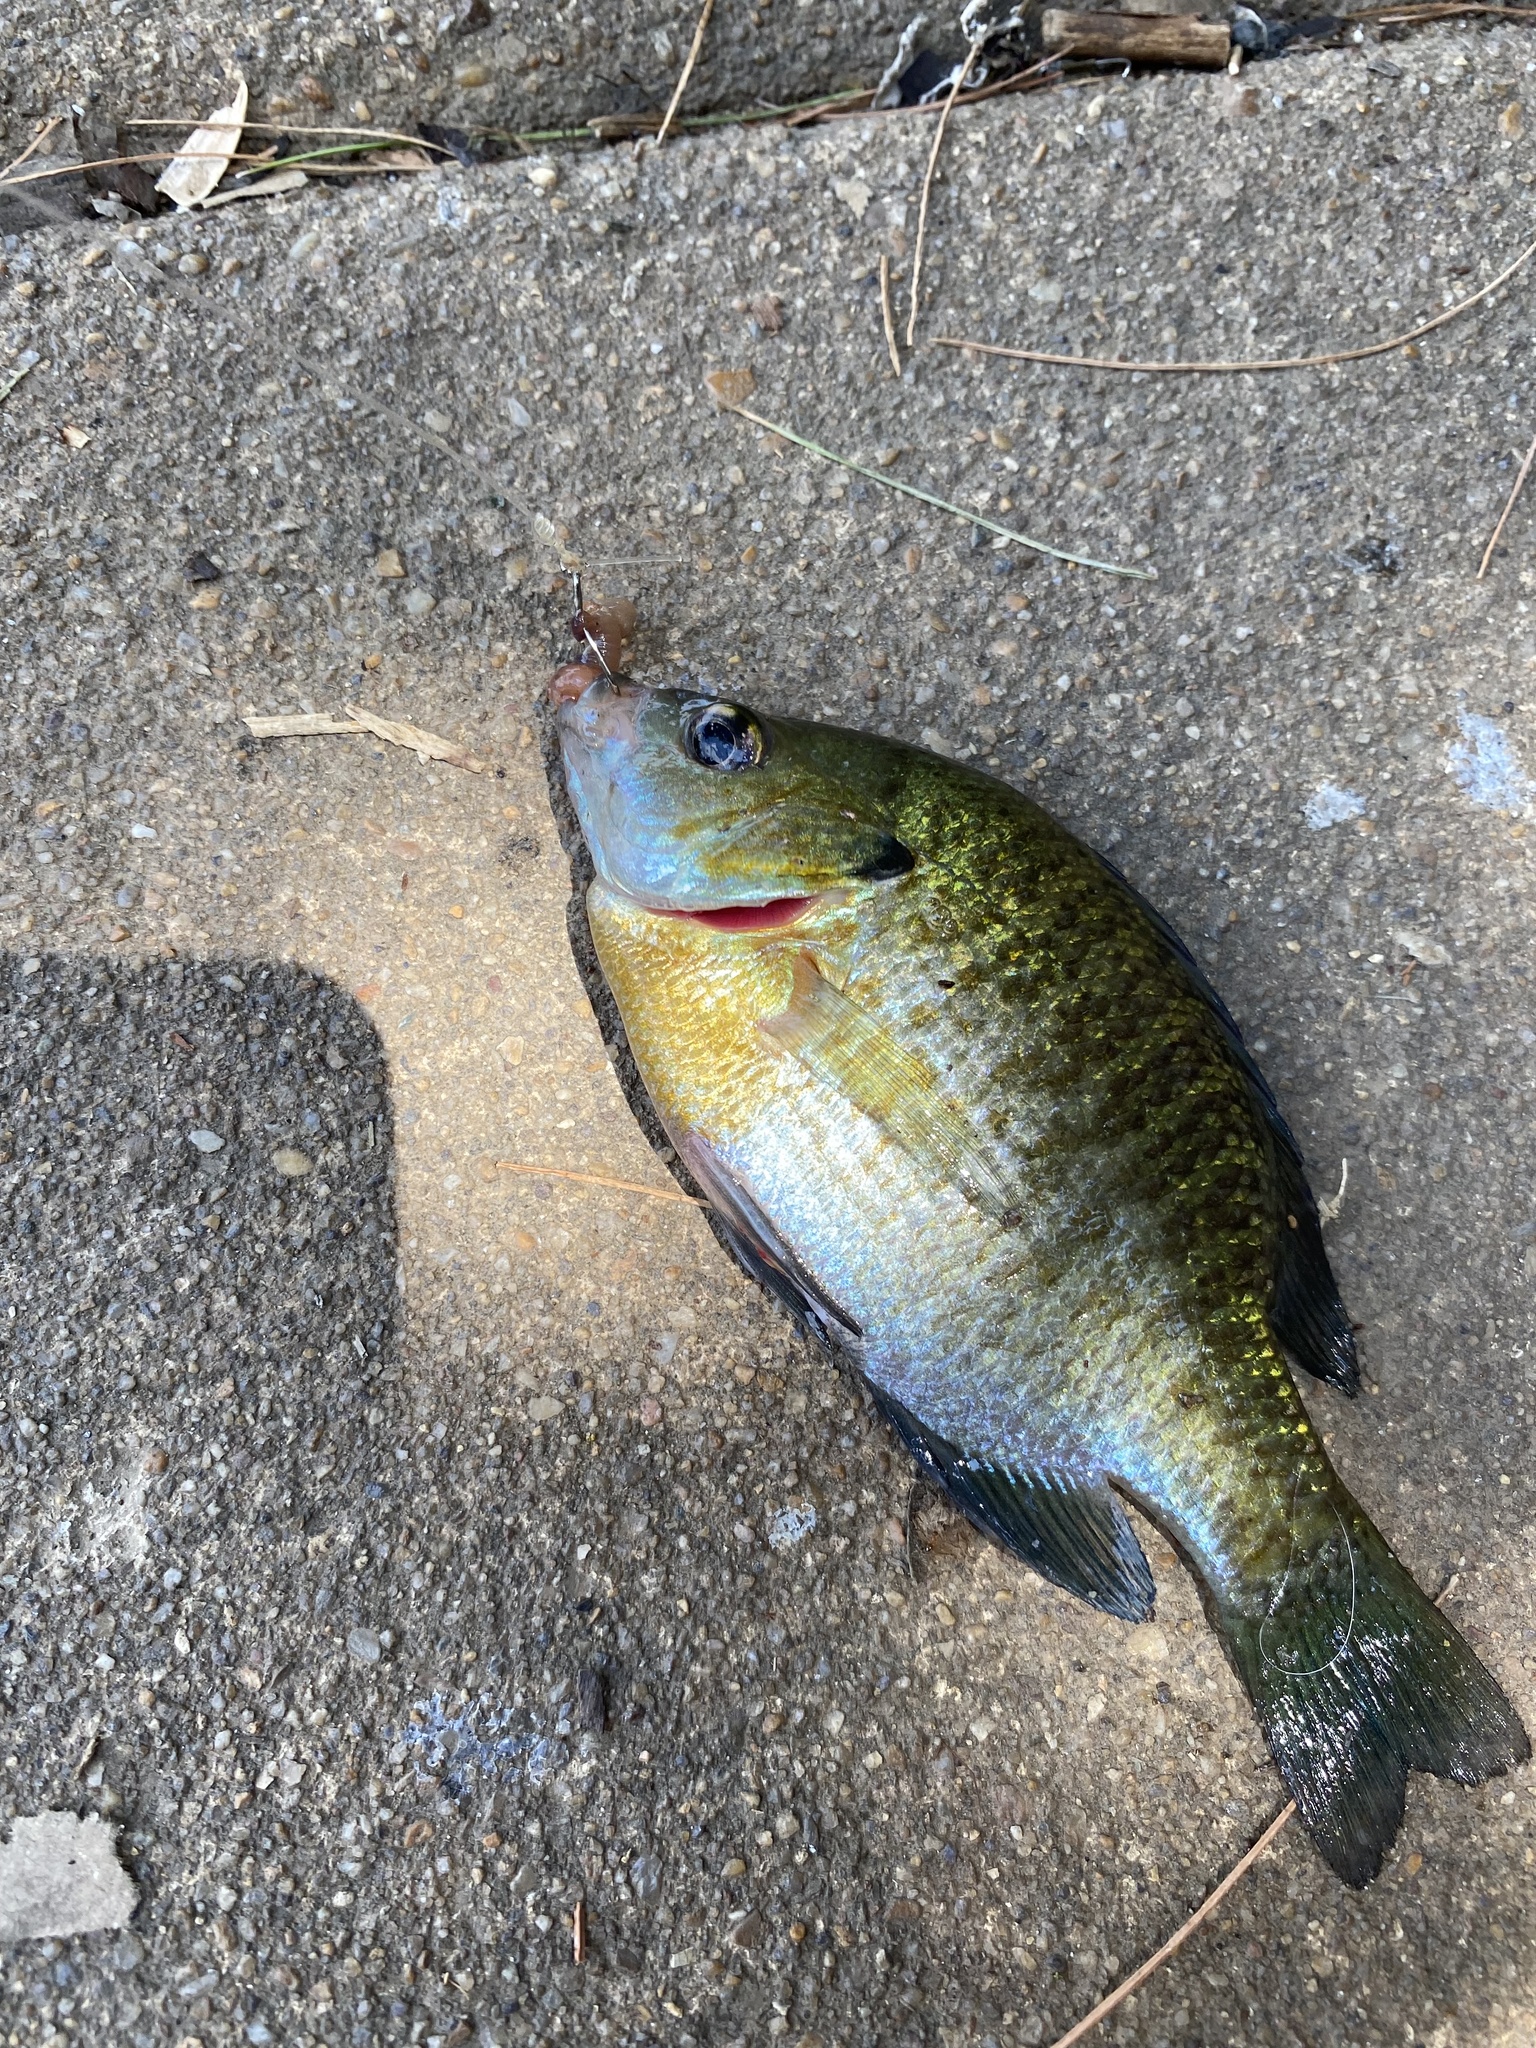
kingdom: Animalia
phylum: Chordata
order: Perciformes
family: Centrarchidae
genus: Lepomis
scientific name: Lepomis macrochirus
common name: Bluegill
